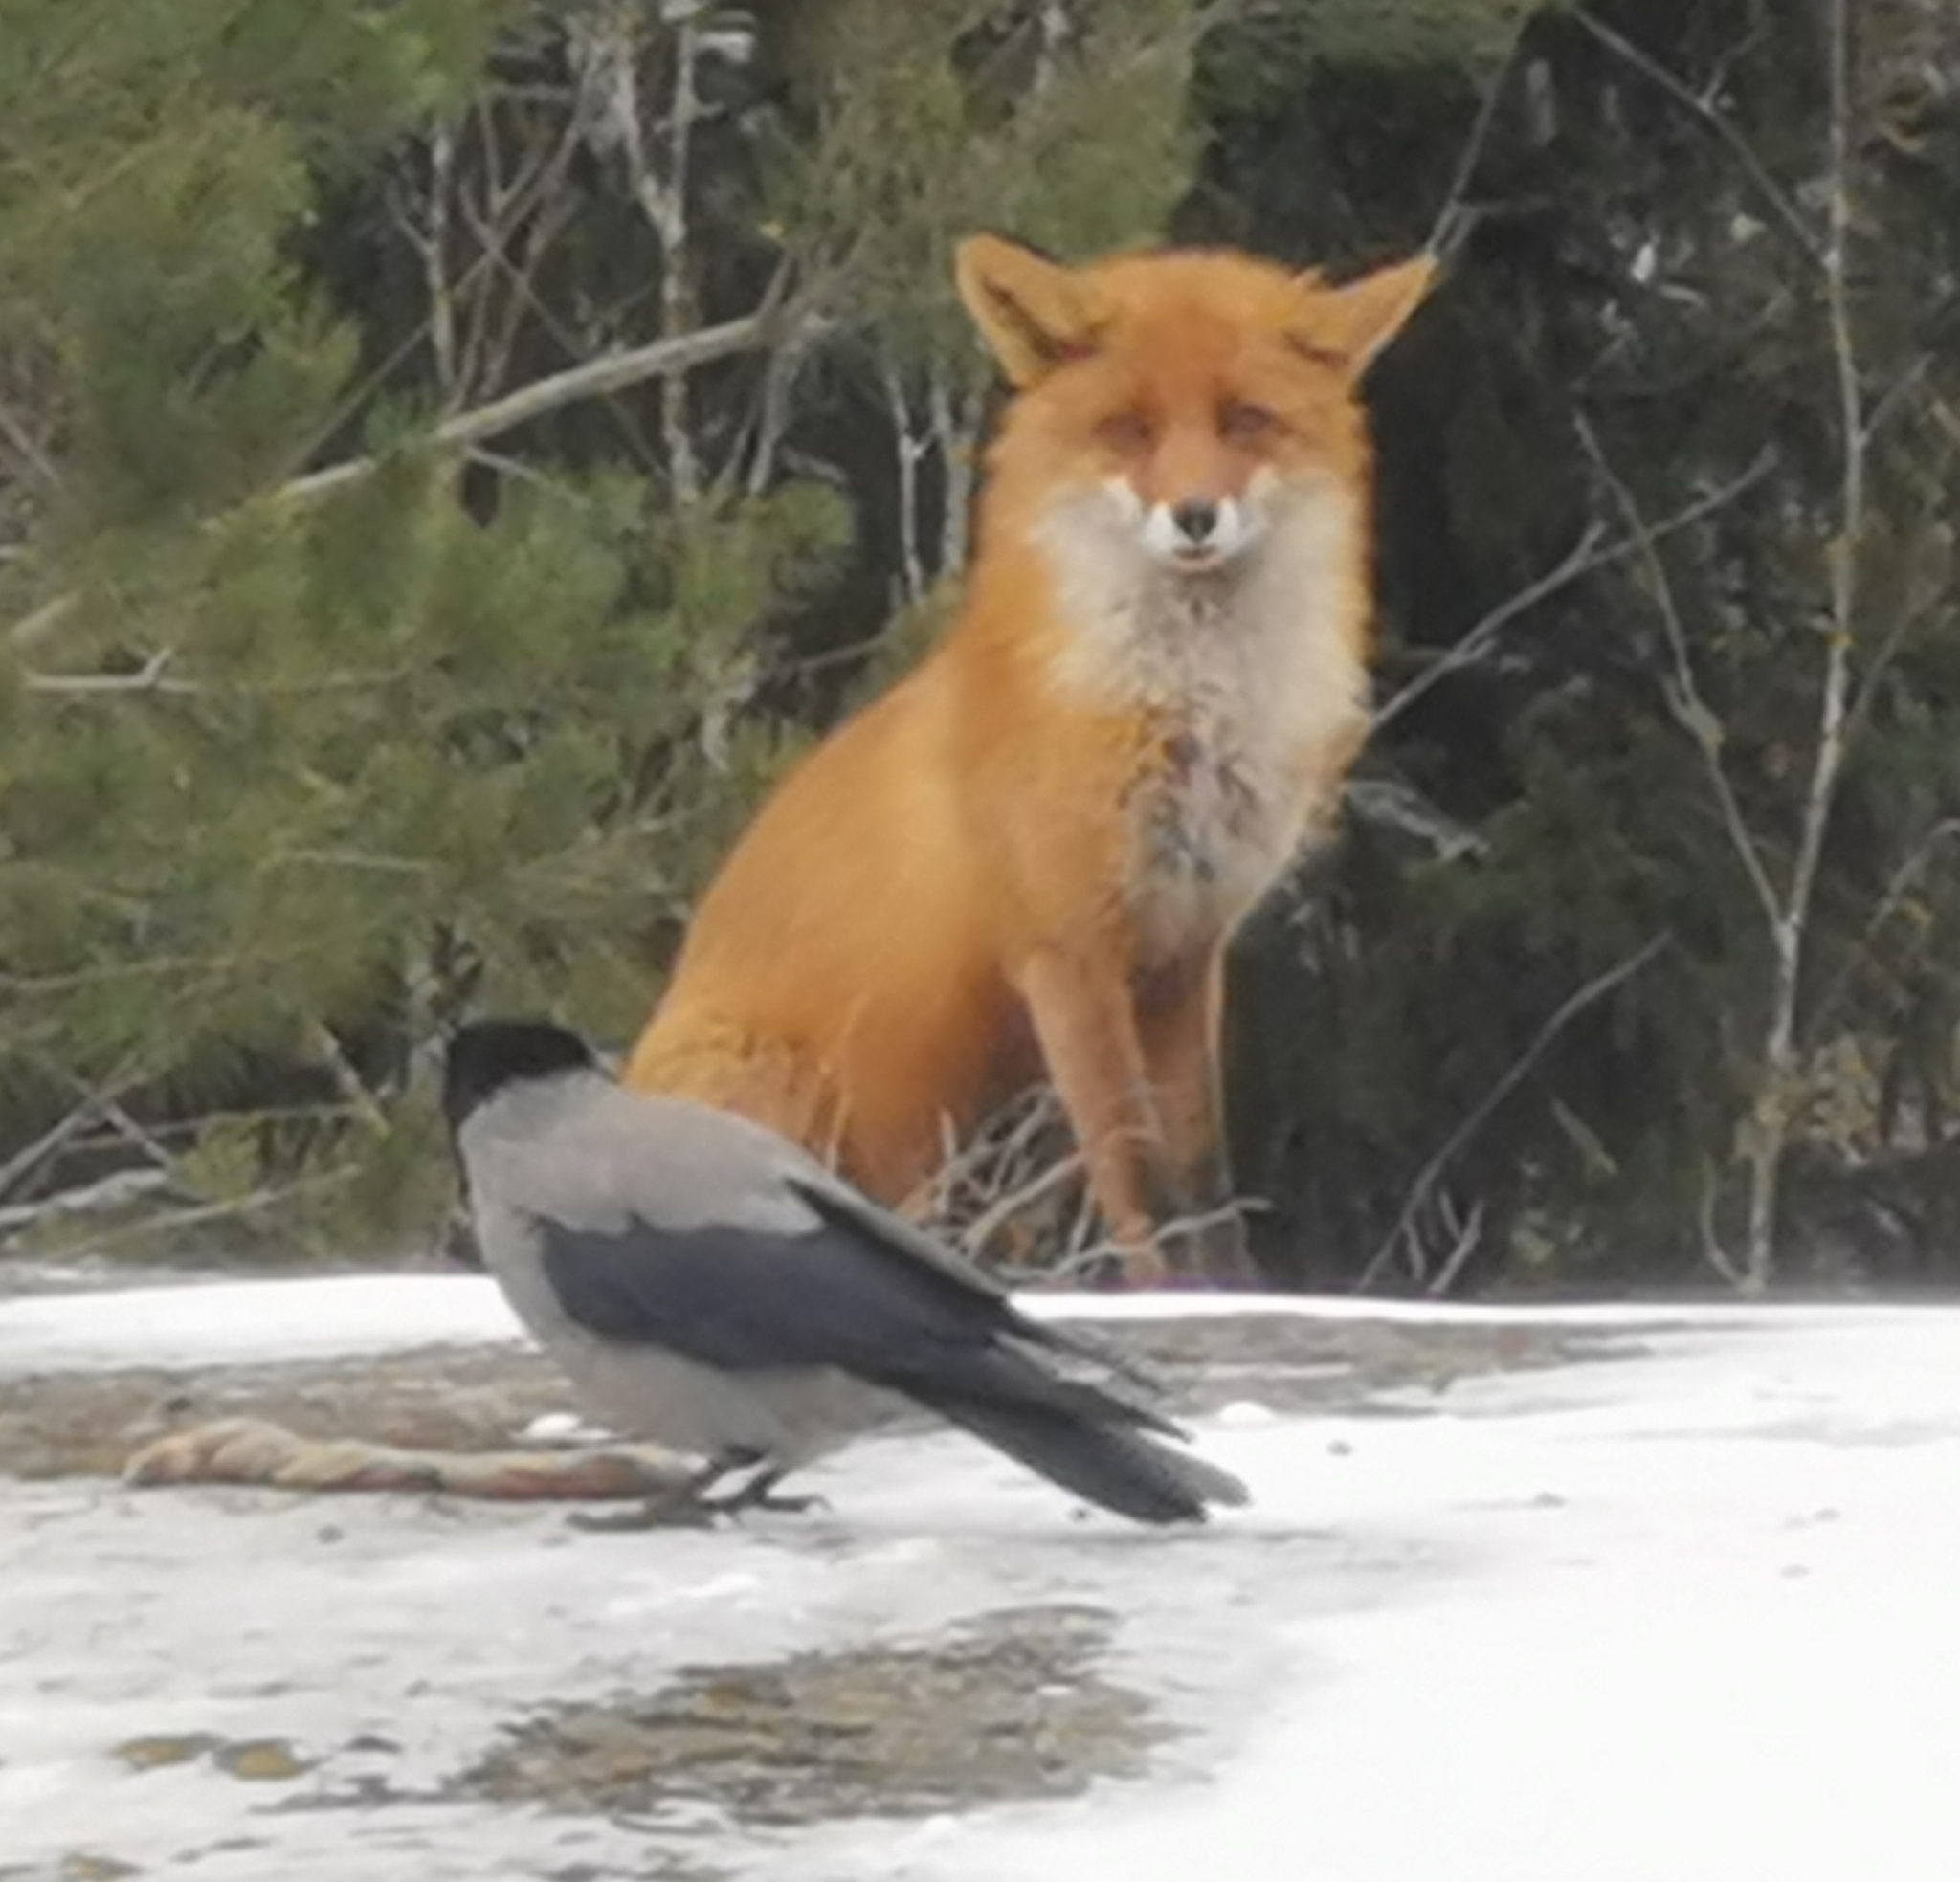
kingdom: Animalia
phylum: Chordata
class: Mammalia
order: Carnivora
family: Canidae
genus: Vulpes
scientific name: Vulpes vulpes
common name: Red fox
